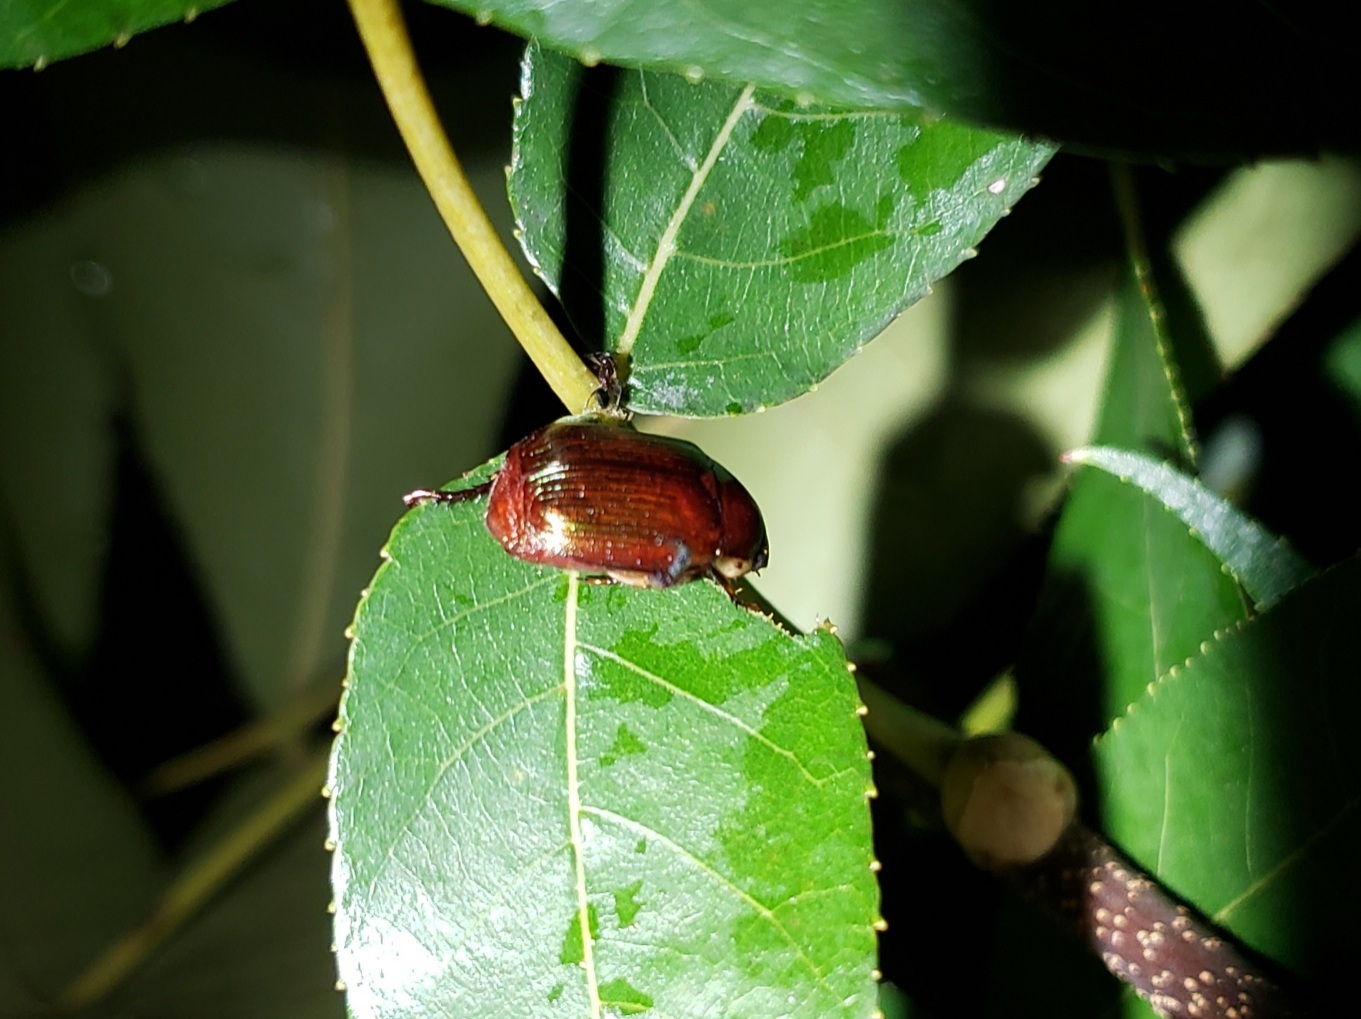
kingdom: Animalia
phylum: Arthropoda
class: Insecta
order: Coleoptera
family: Scarabaeidae
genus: Callistethus
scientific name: Callistethus marginatus
